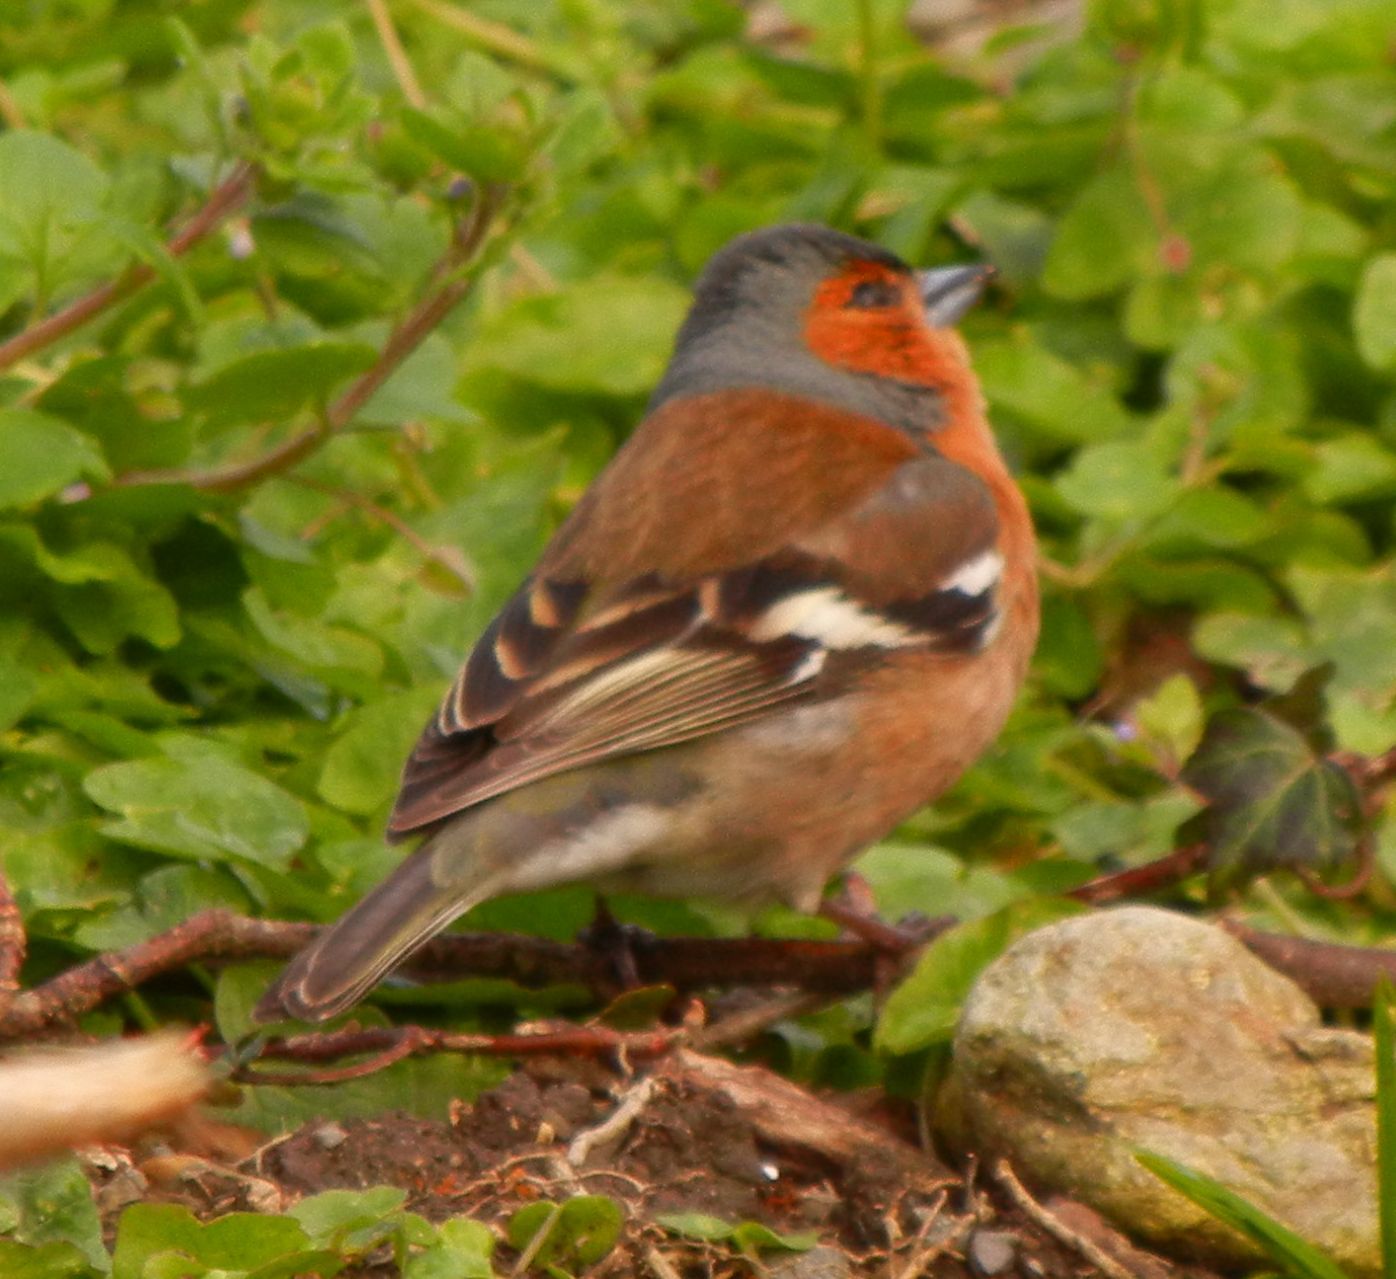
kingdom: Animalia
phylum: Chordata
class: Aves
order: Passeriformes
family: Fringillidae
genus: Fringilla
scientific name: Fringilla coelebs
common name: Common chaffinch
